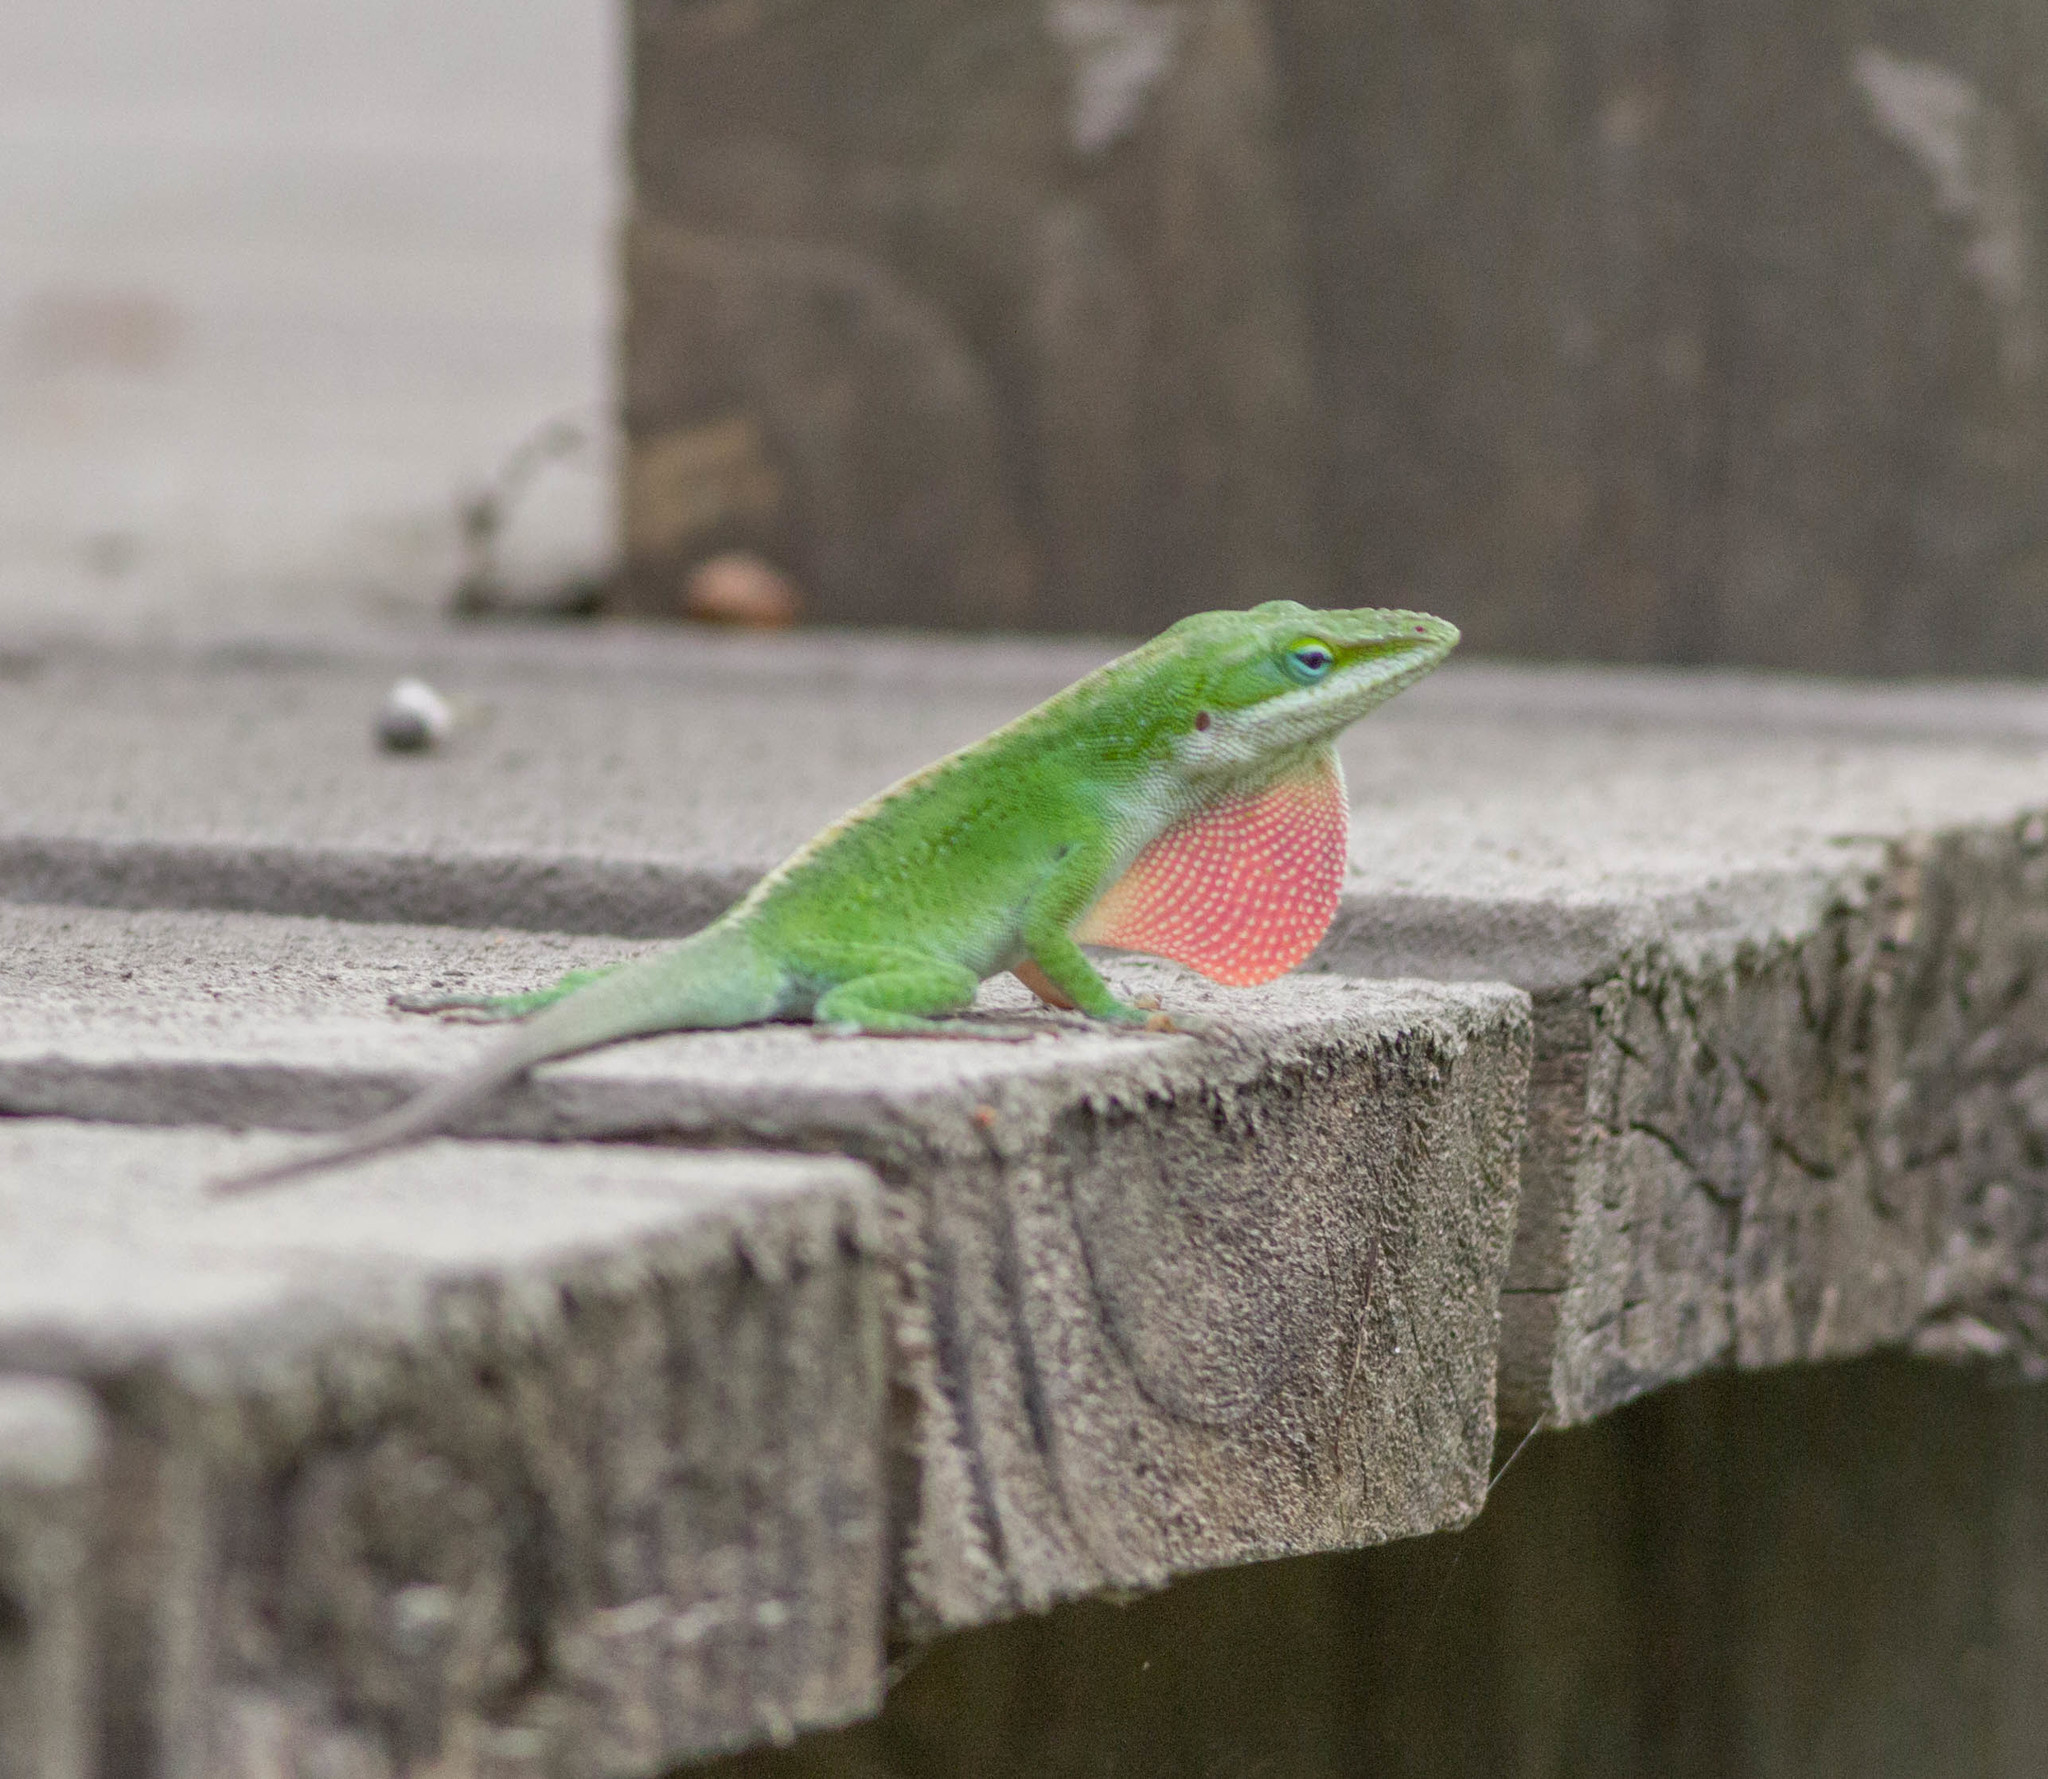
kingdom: Animalia
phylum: Chordata
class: Squamata
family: Dactyloidae
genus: Anolis
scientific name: Anolis carolinensis
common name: Green anole
